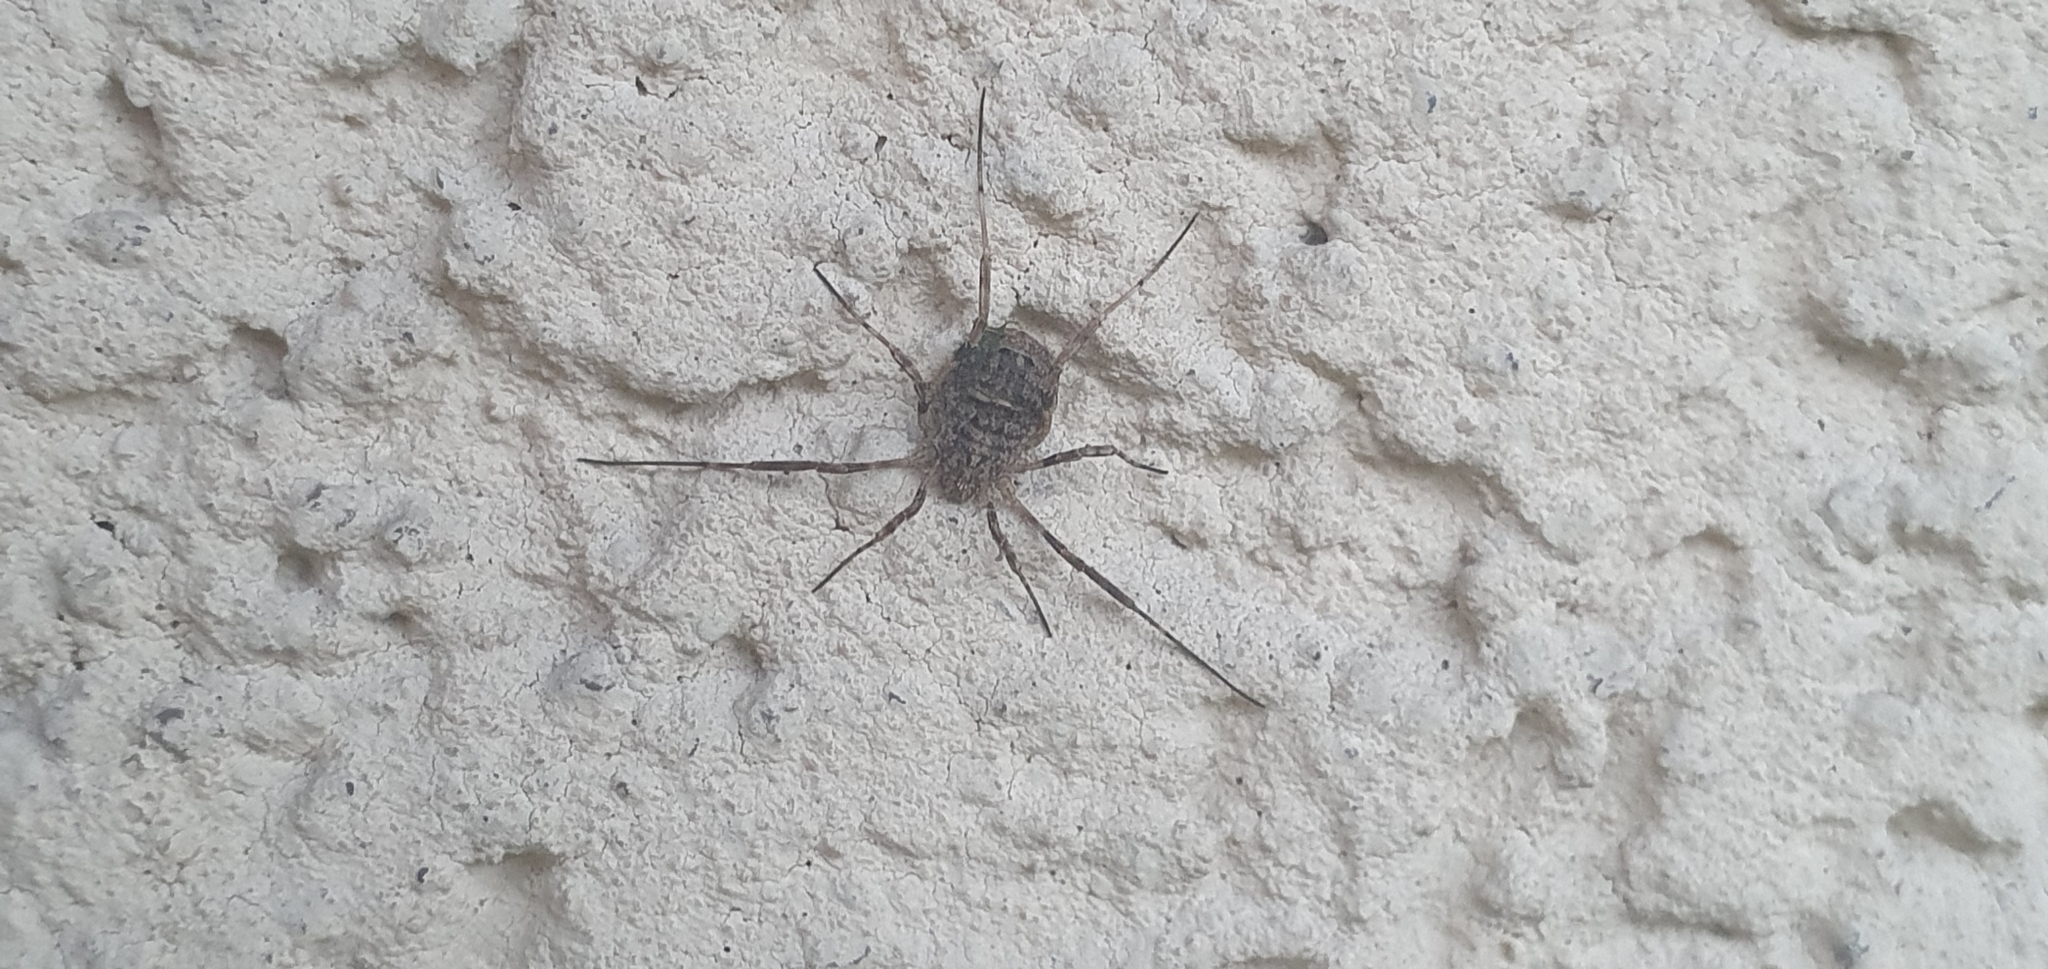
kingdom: Animalia
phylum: Arthropoda
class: Arachnida
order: Opiliones
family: Phalangiidae
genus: Odiellus
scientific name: Odiellus spinosus
